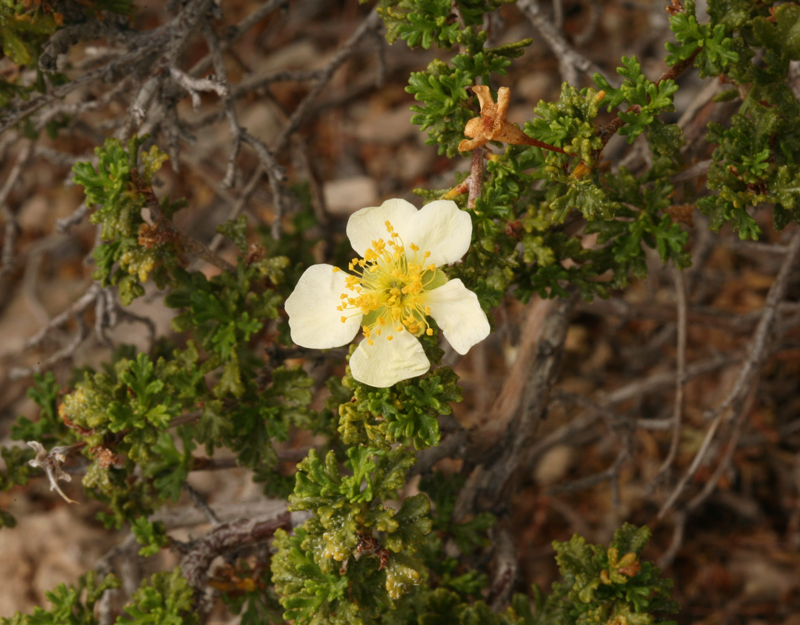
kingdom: Plantae
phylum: Tracheophyta
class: Magnoliopsida
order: Rosales
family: Rosaceae
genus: Purshia
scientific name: Purshia stansburiana
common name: Stansbury's cliffrose
